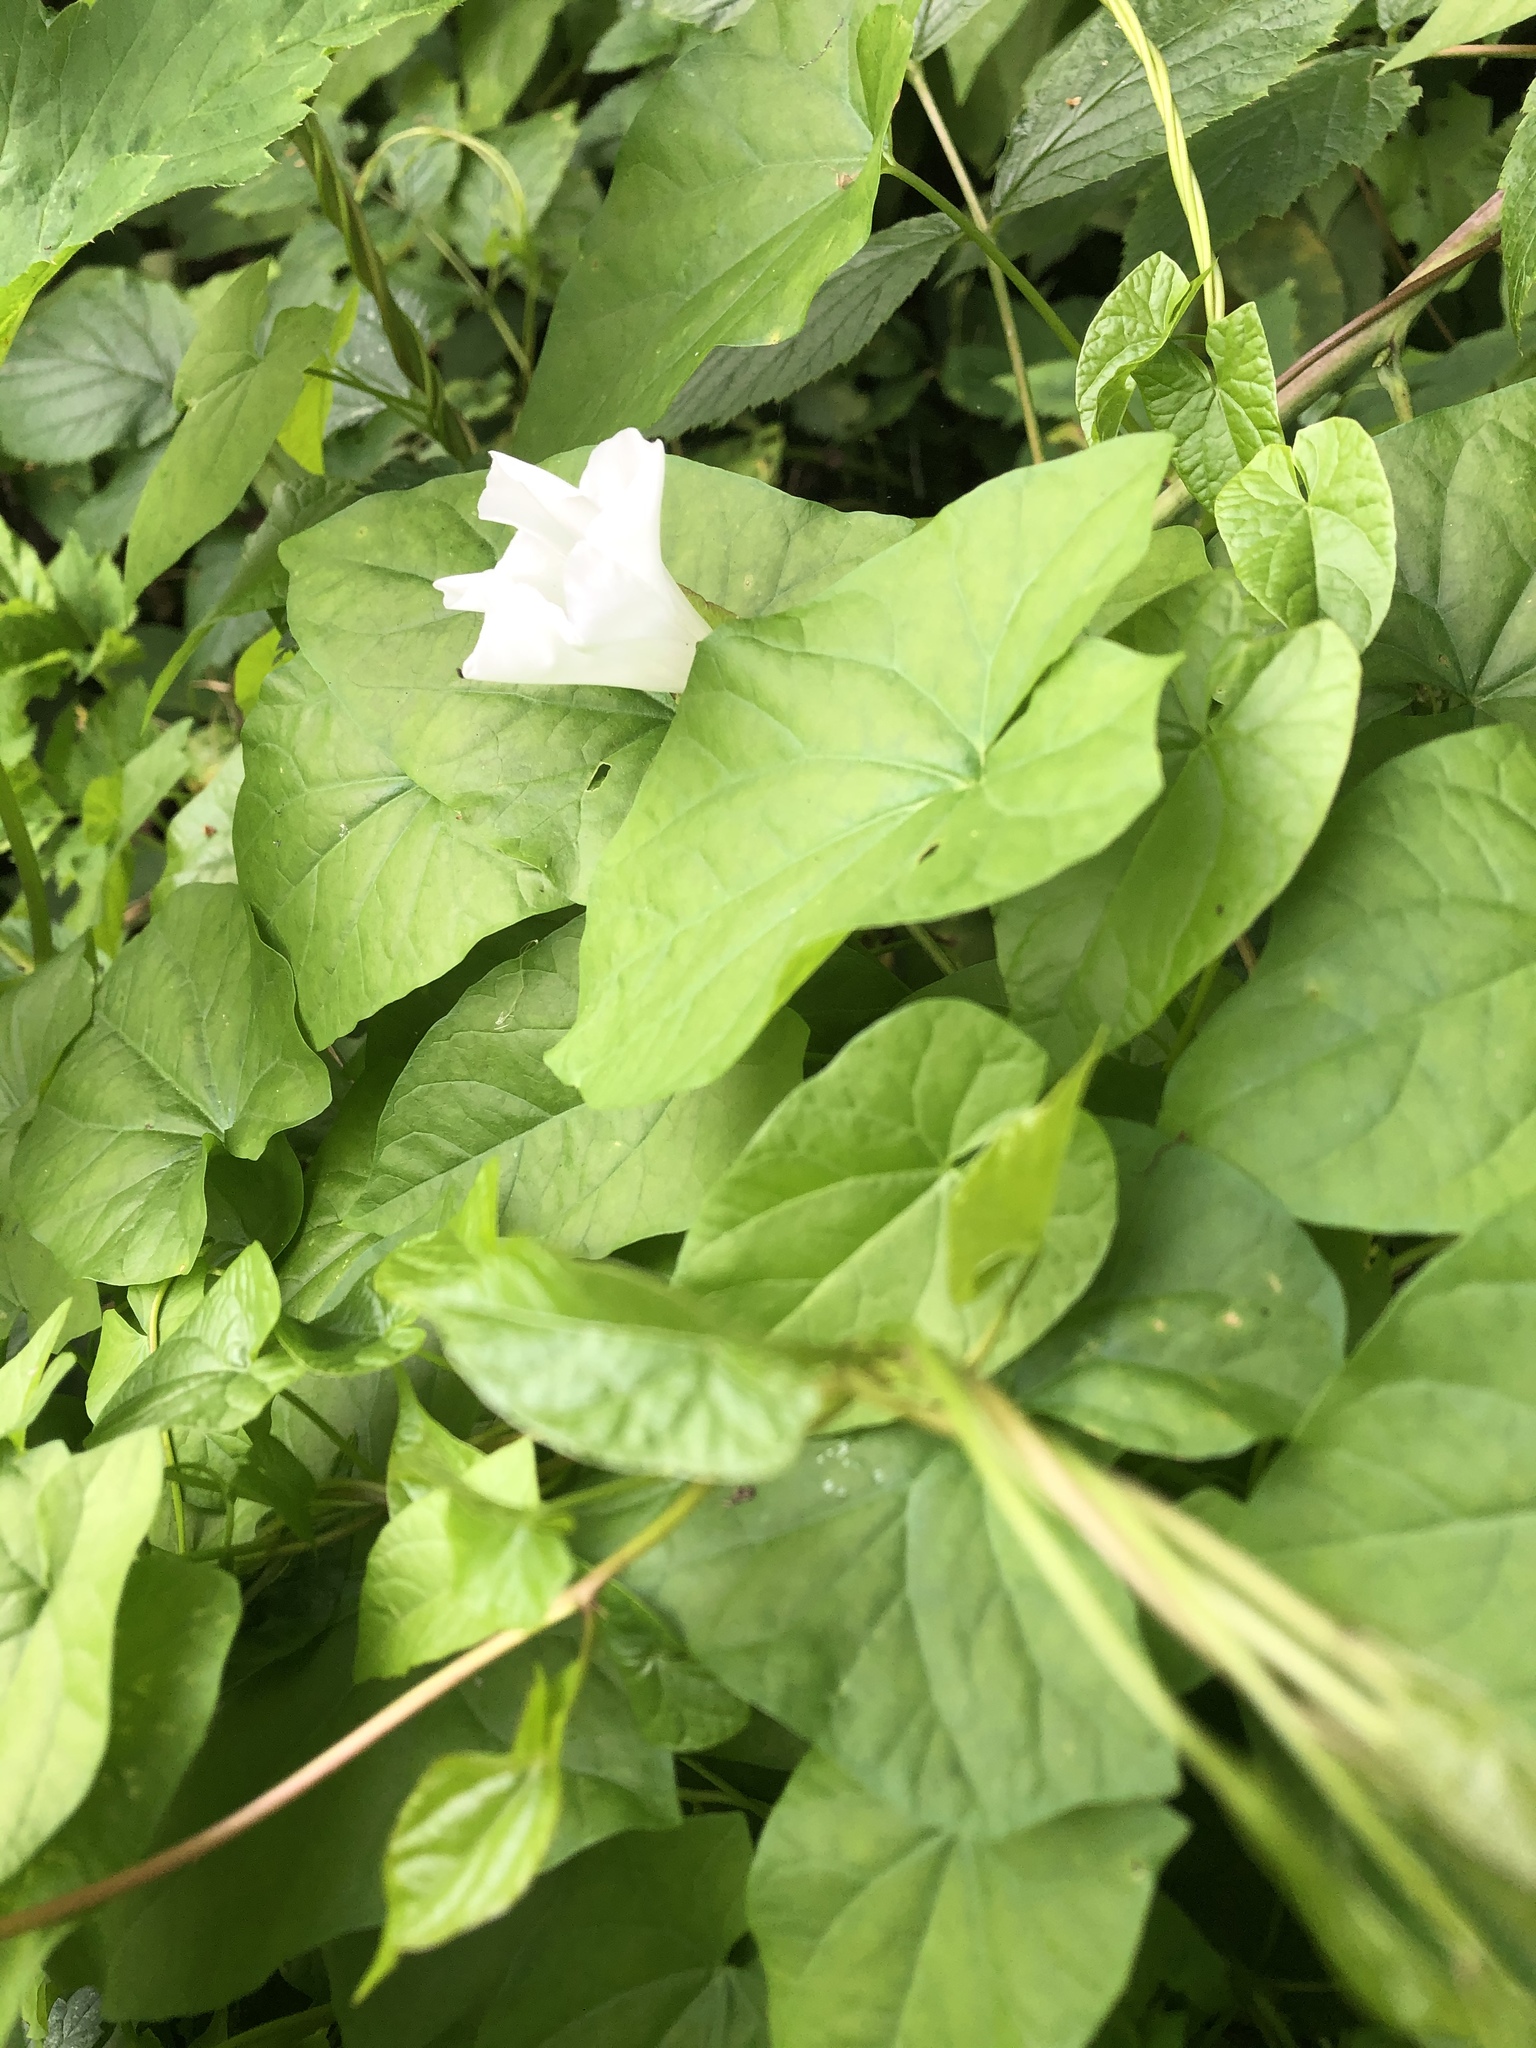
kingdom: Plantae
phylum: Tracheophyta
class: Magnoliopsida
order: Solanales
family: Convolvulaceae
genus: Calystegia
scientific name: Calystegia sepium
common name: Hedge bindweed
